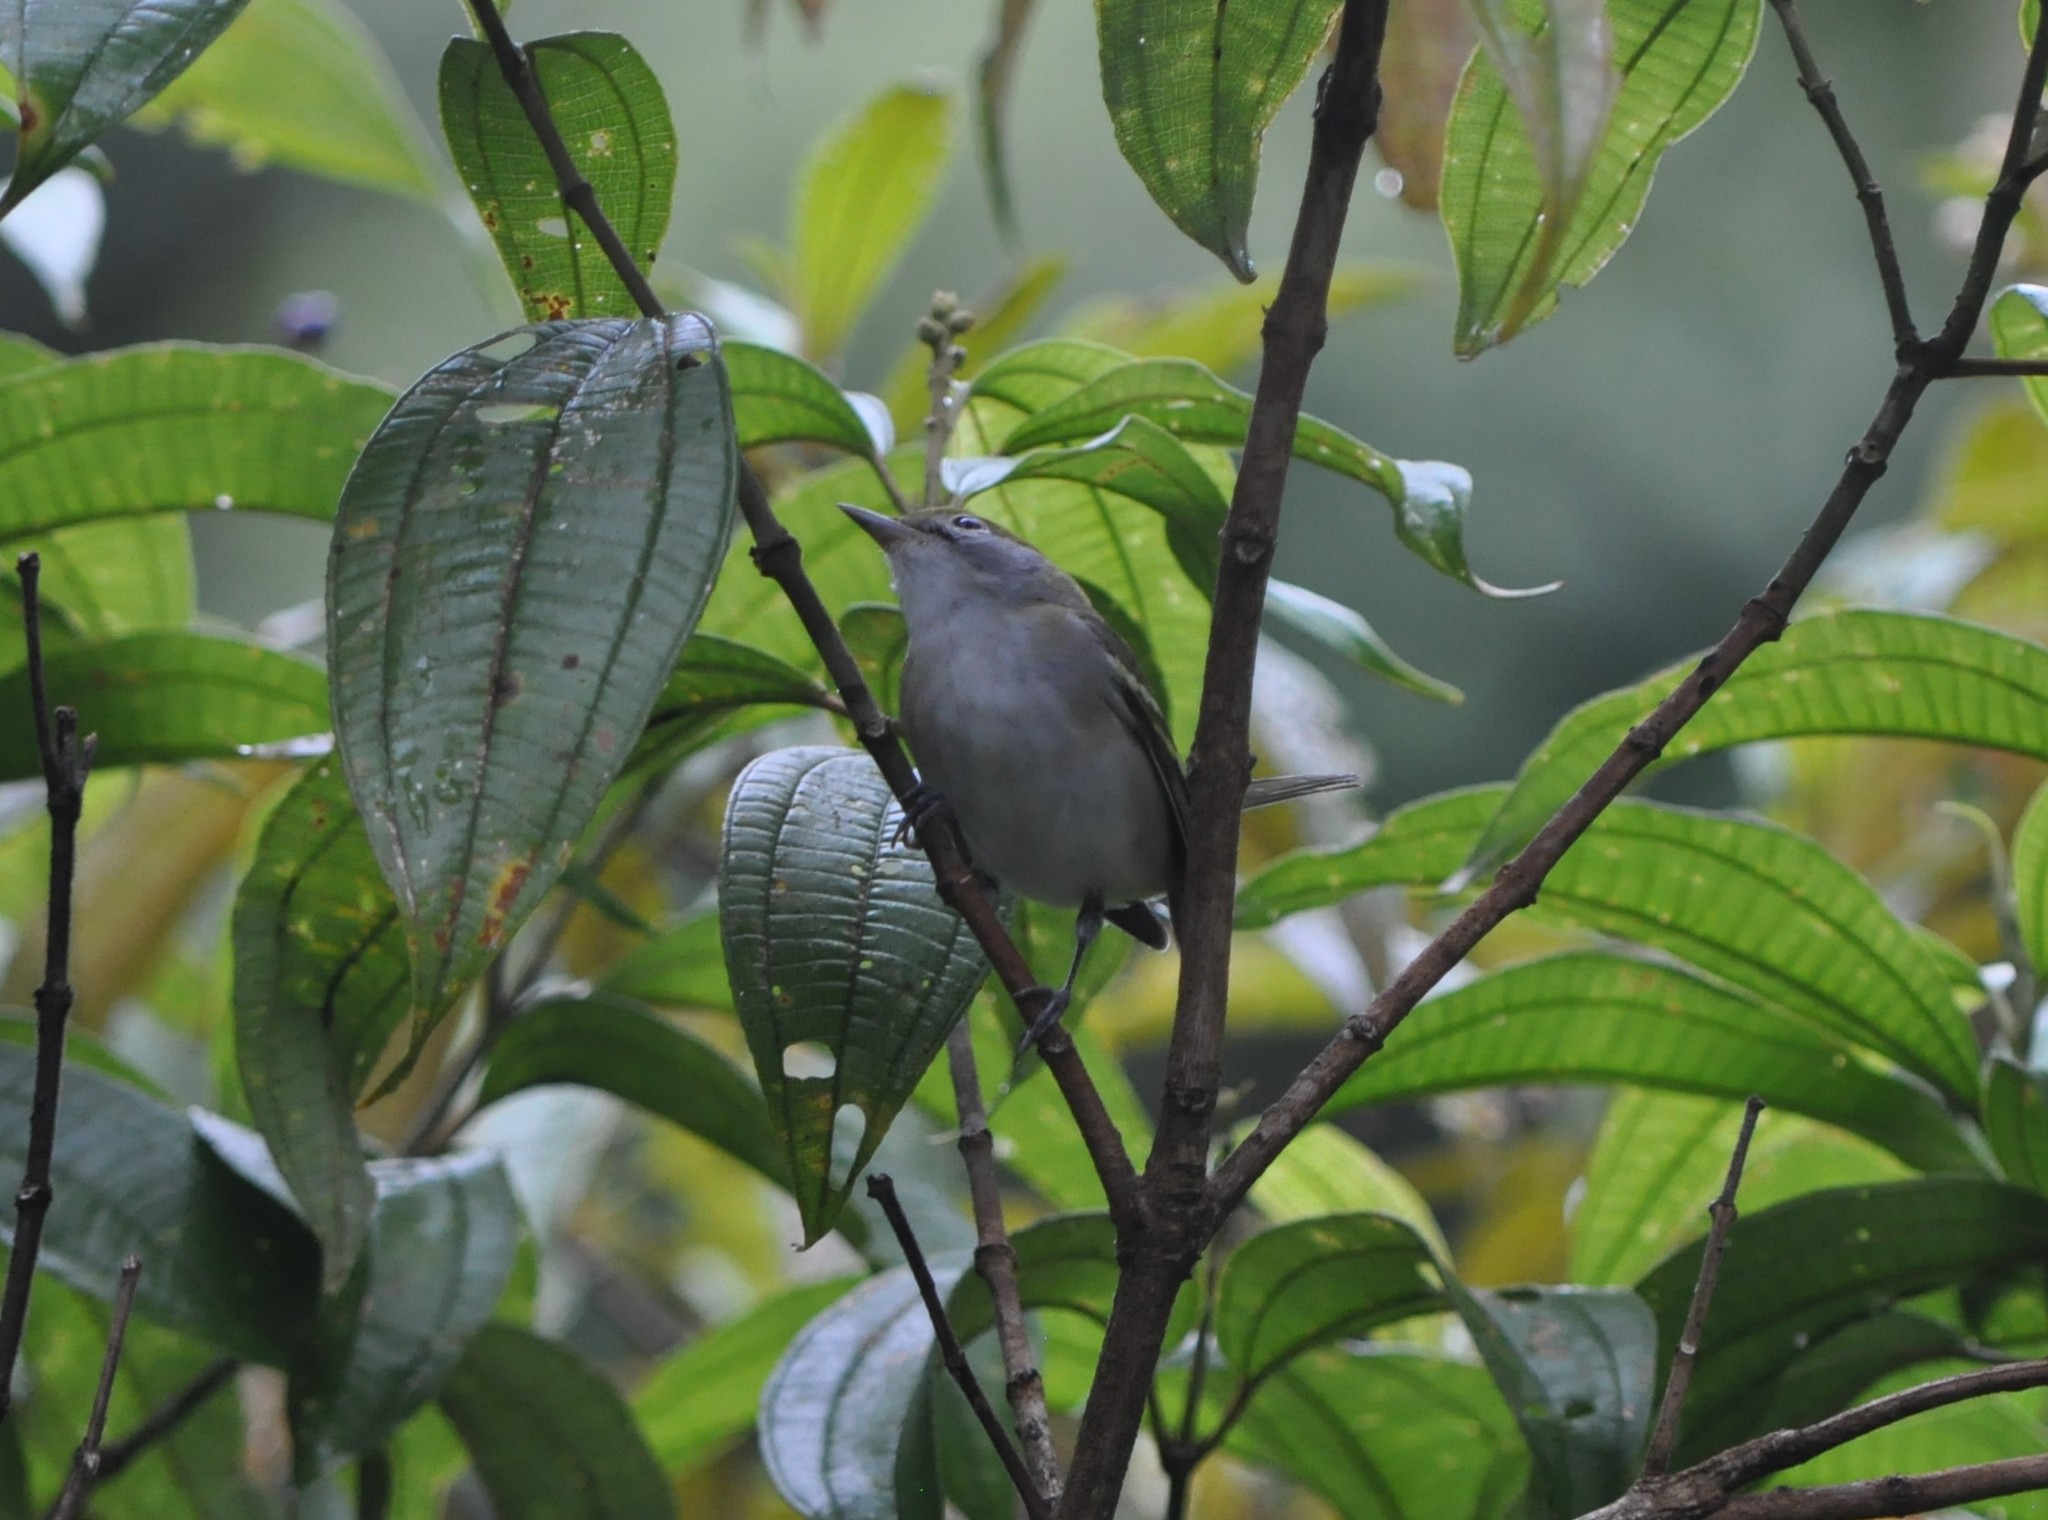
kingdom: Animalia
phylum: Chordata
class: Aves
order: Passeriformes
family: Parulidae
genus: Setophaga
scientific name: Setophaga pensylvanica
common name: Chestnut-sided warbler
